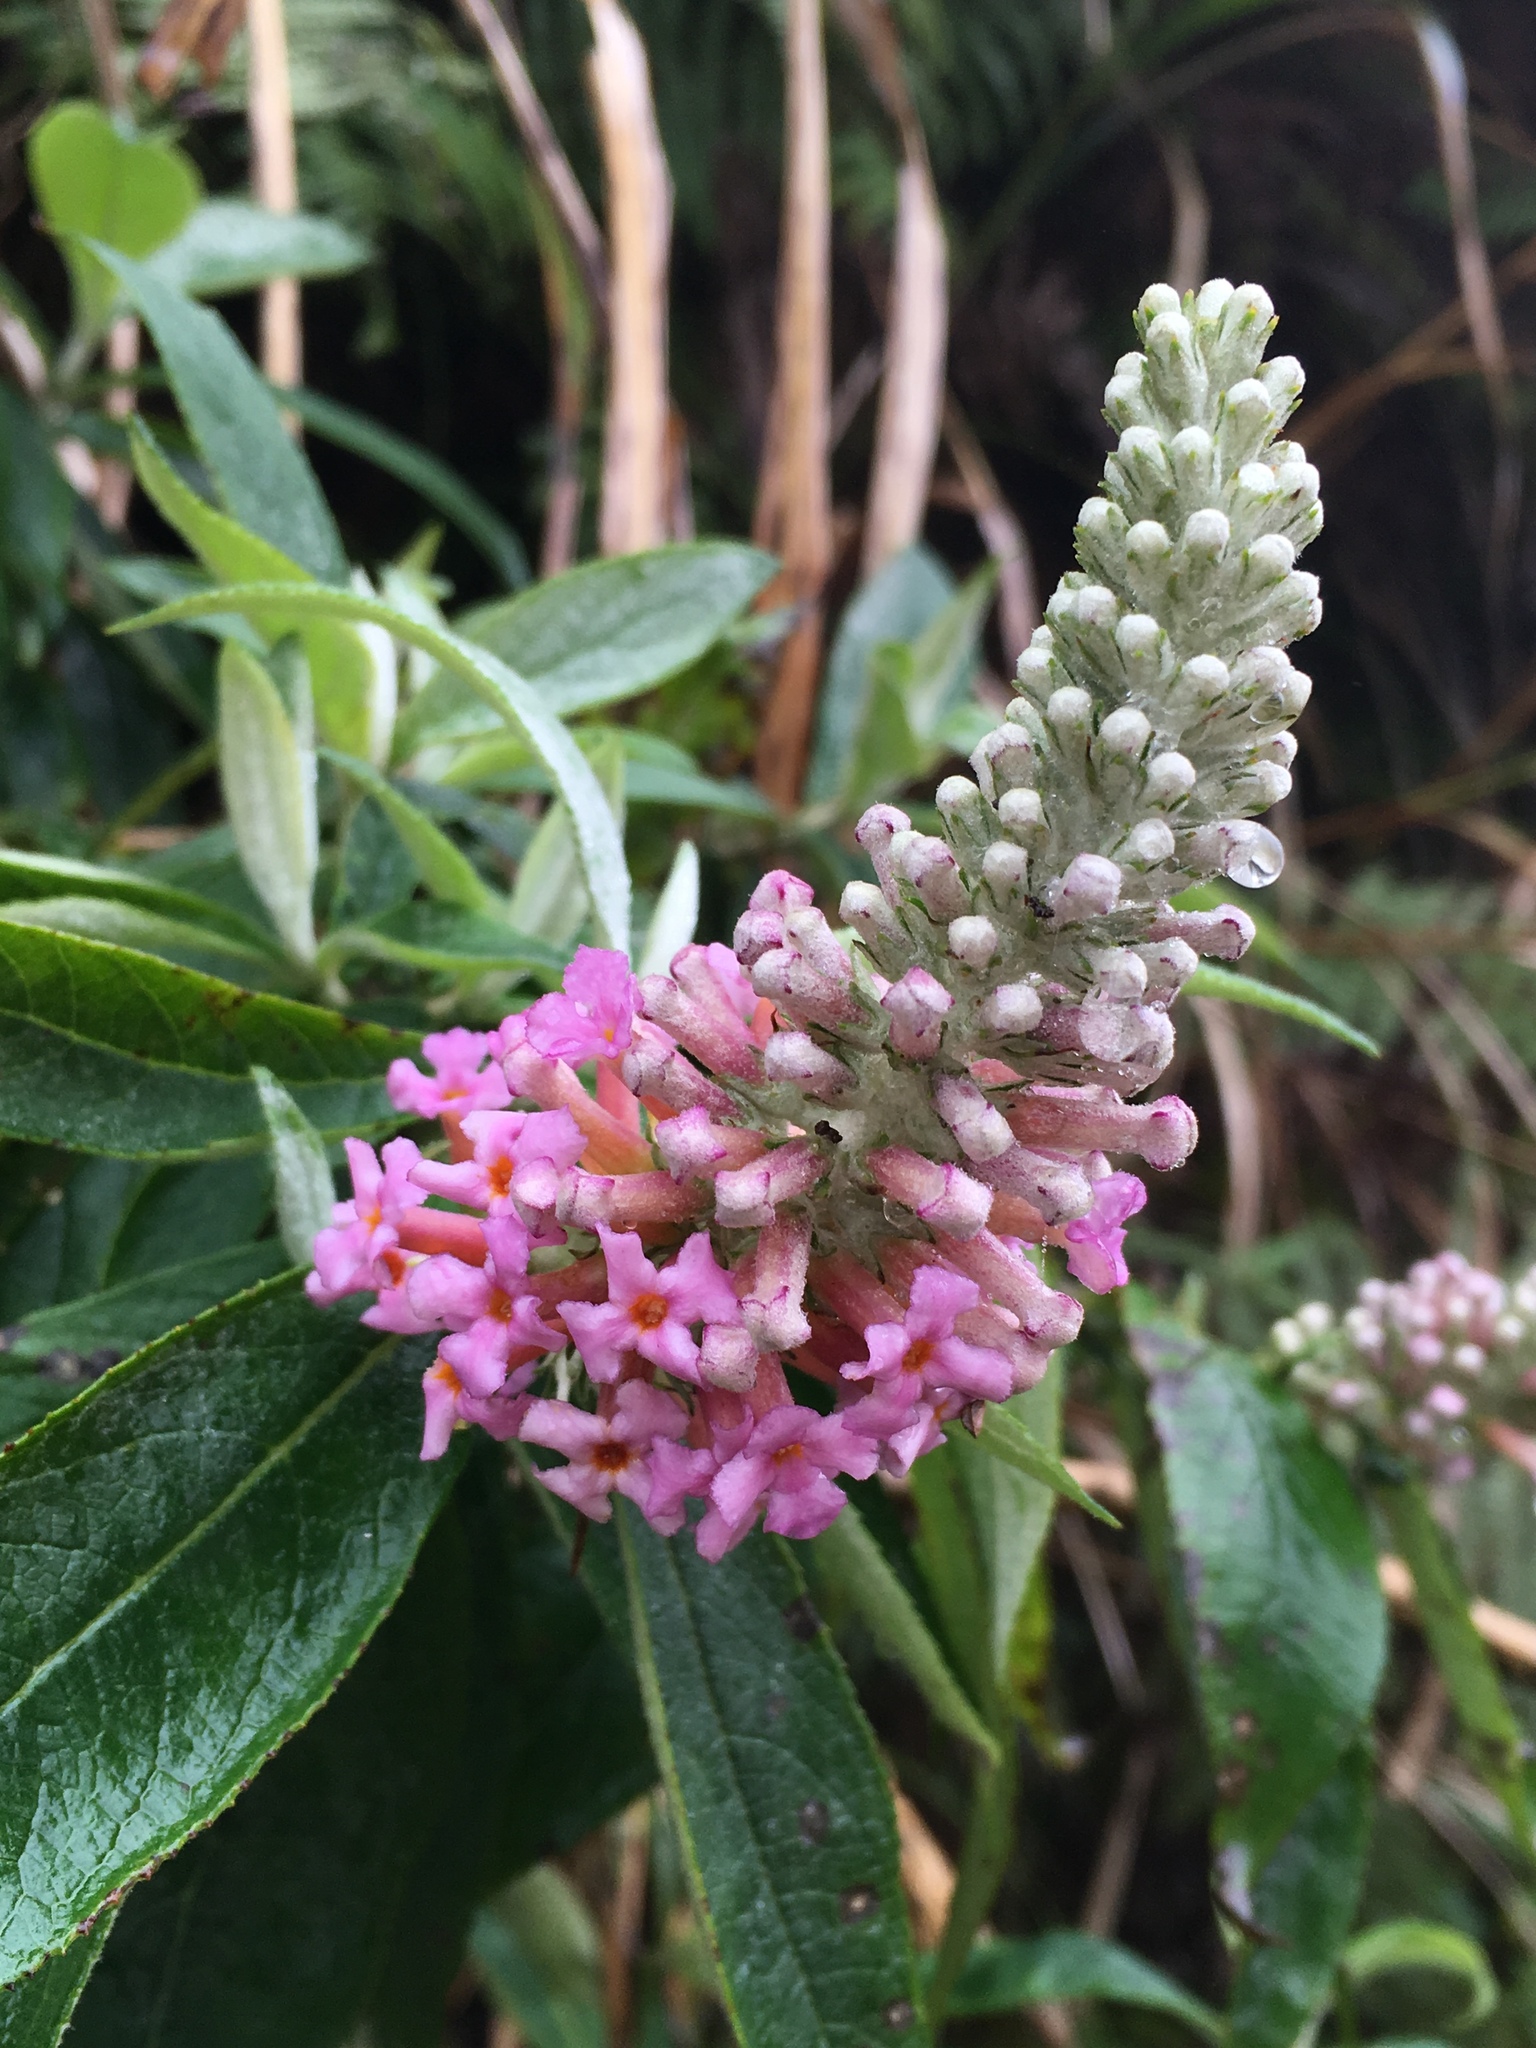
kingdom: Plantae
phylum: Tracheophyta
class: Magnoliopsida
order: Lamiales
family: Scrophulariaceae
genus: Buddleja
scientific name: Buddleja macrostachya
